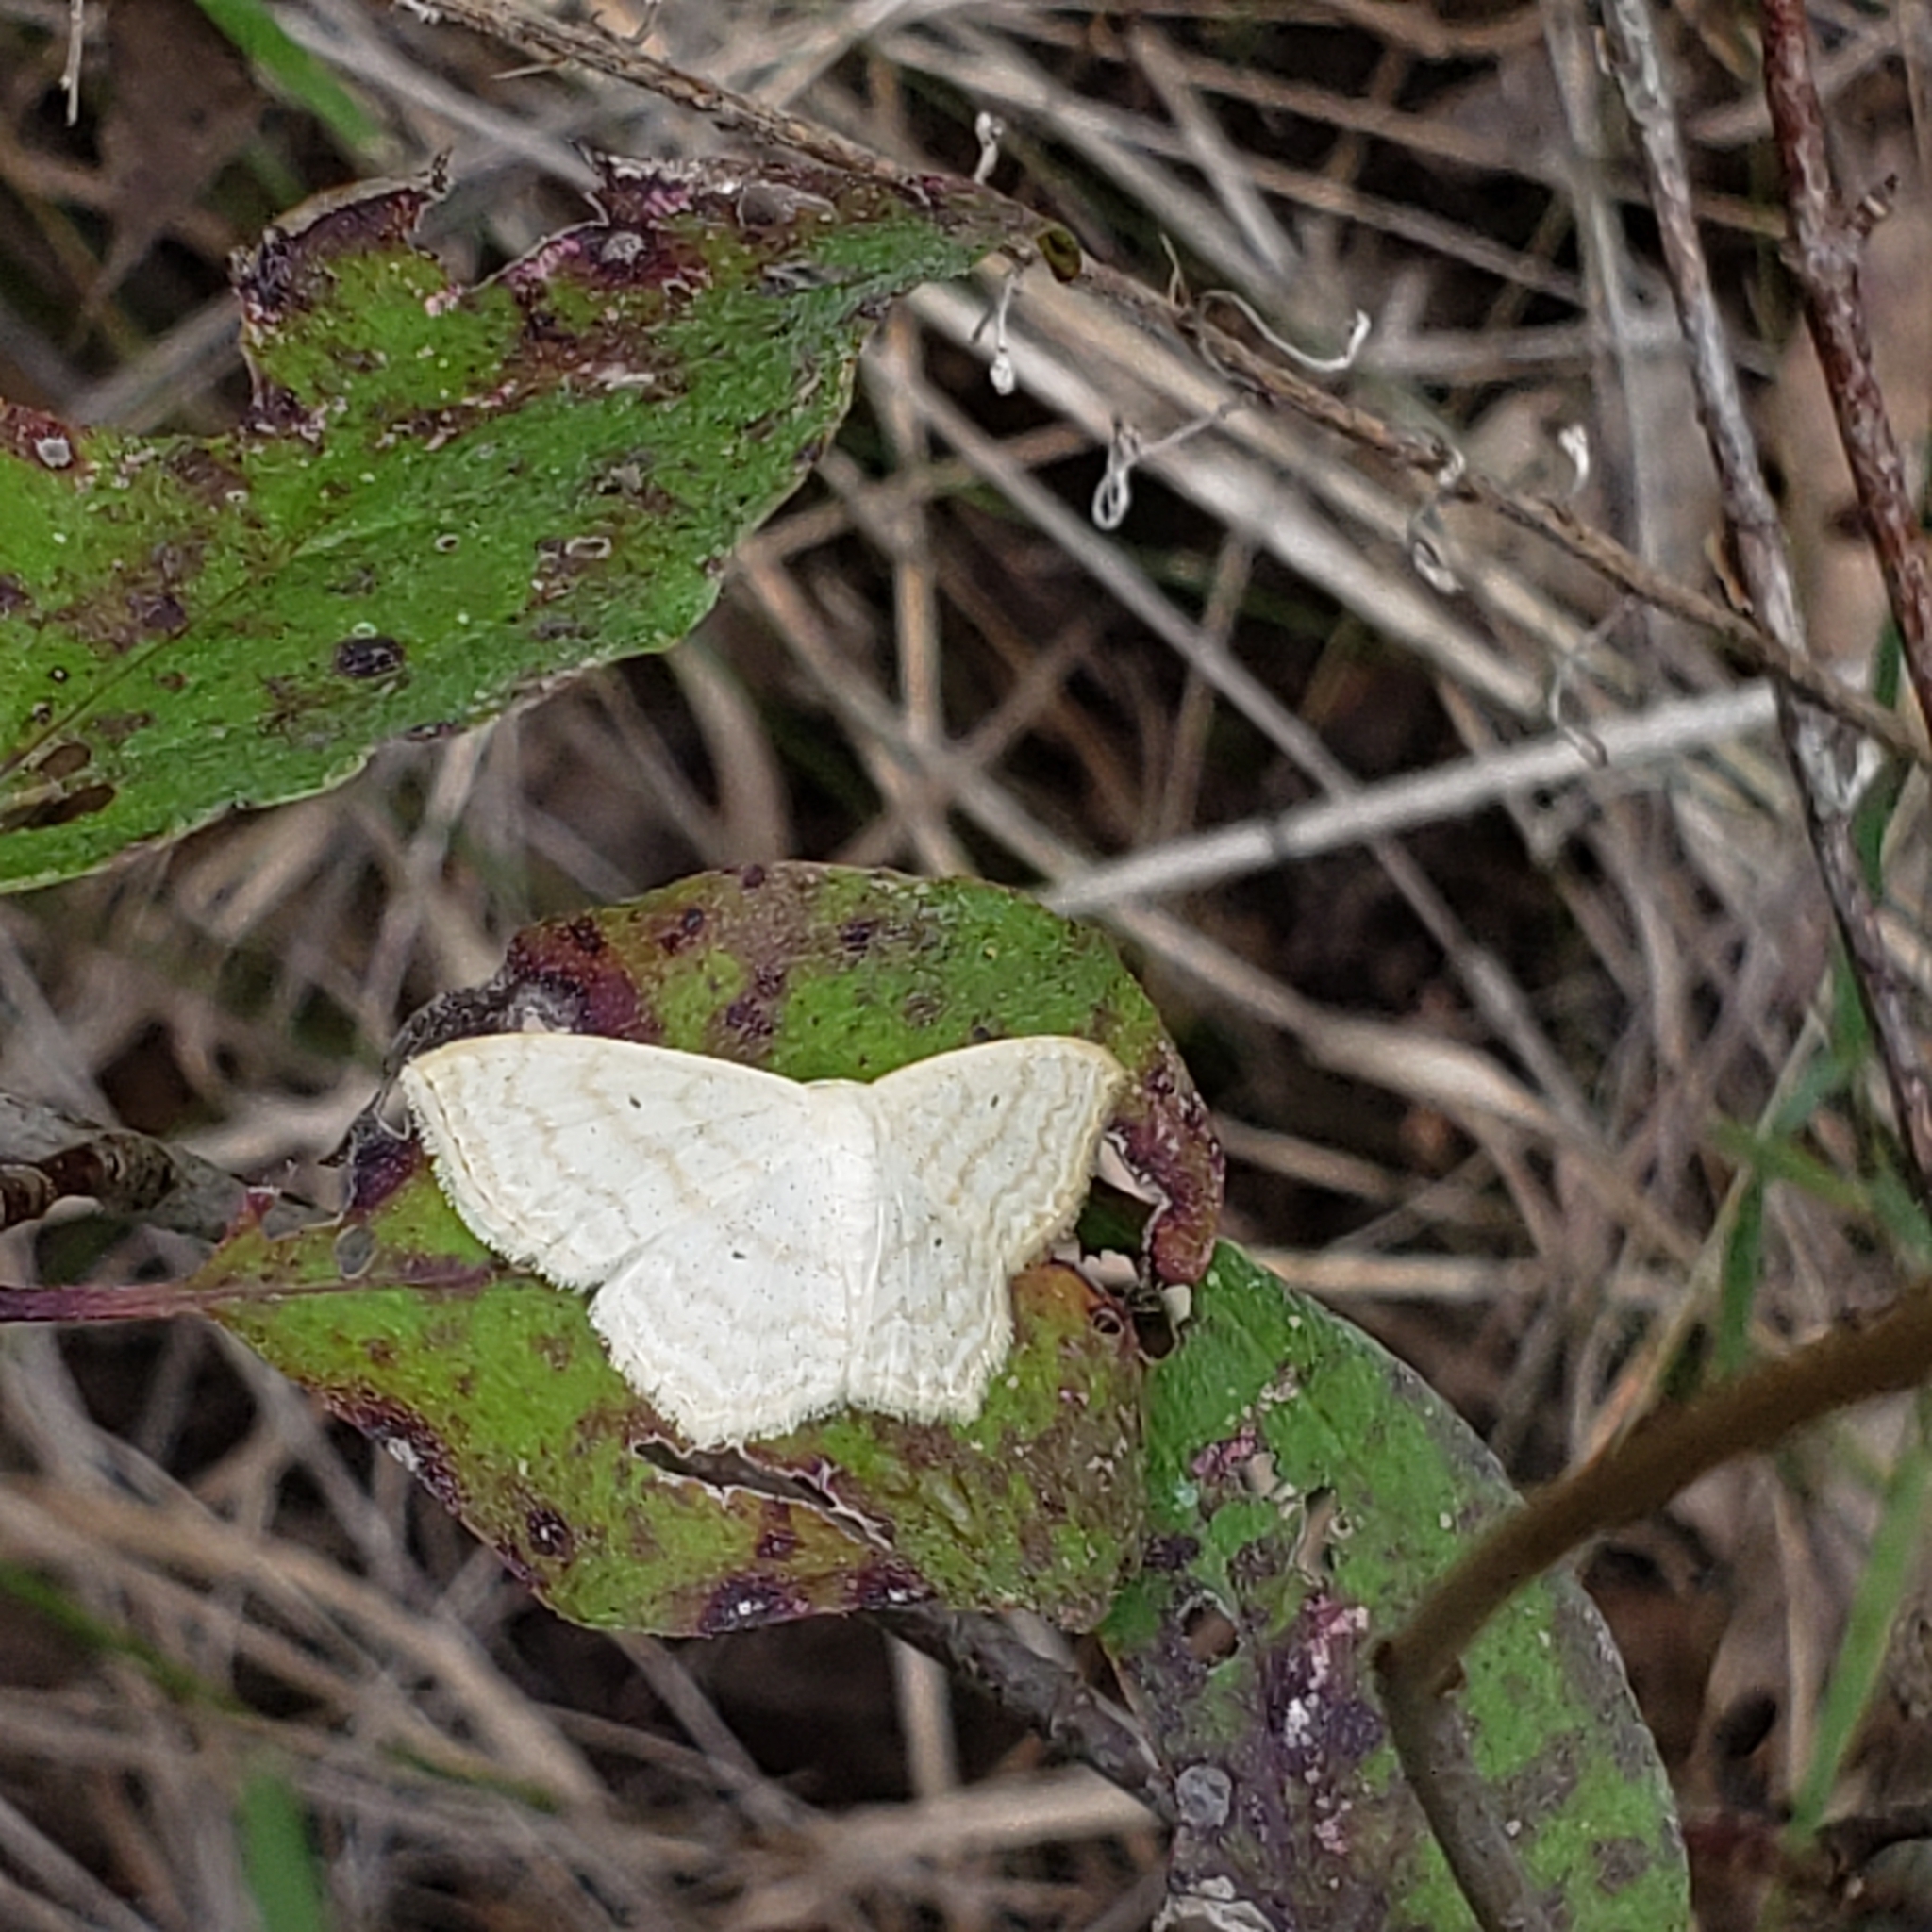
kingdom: Animalia
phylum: Arthropoda
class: Insecta
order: Lepidoptera
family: Geometridae
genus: Scopula
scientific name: Scopula limboundata
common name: Large lace border
